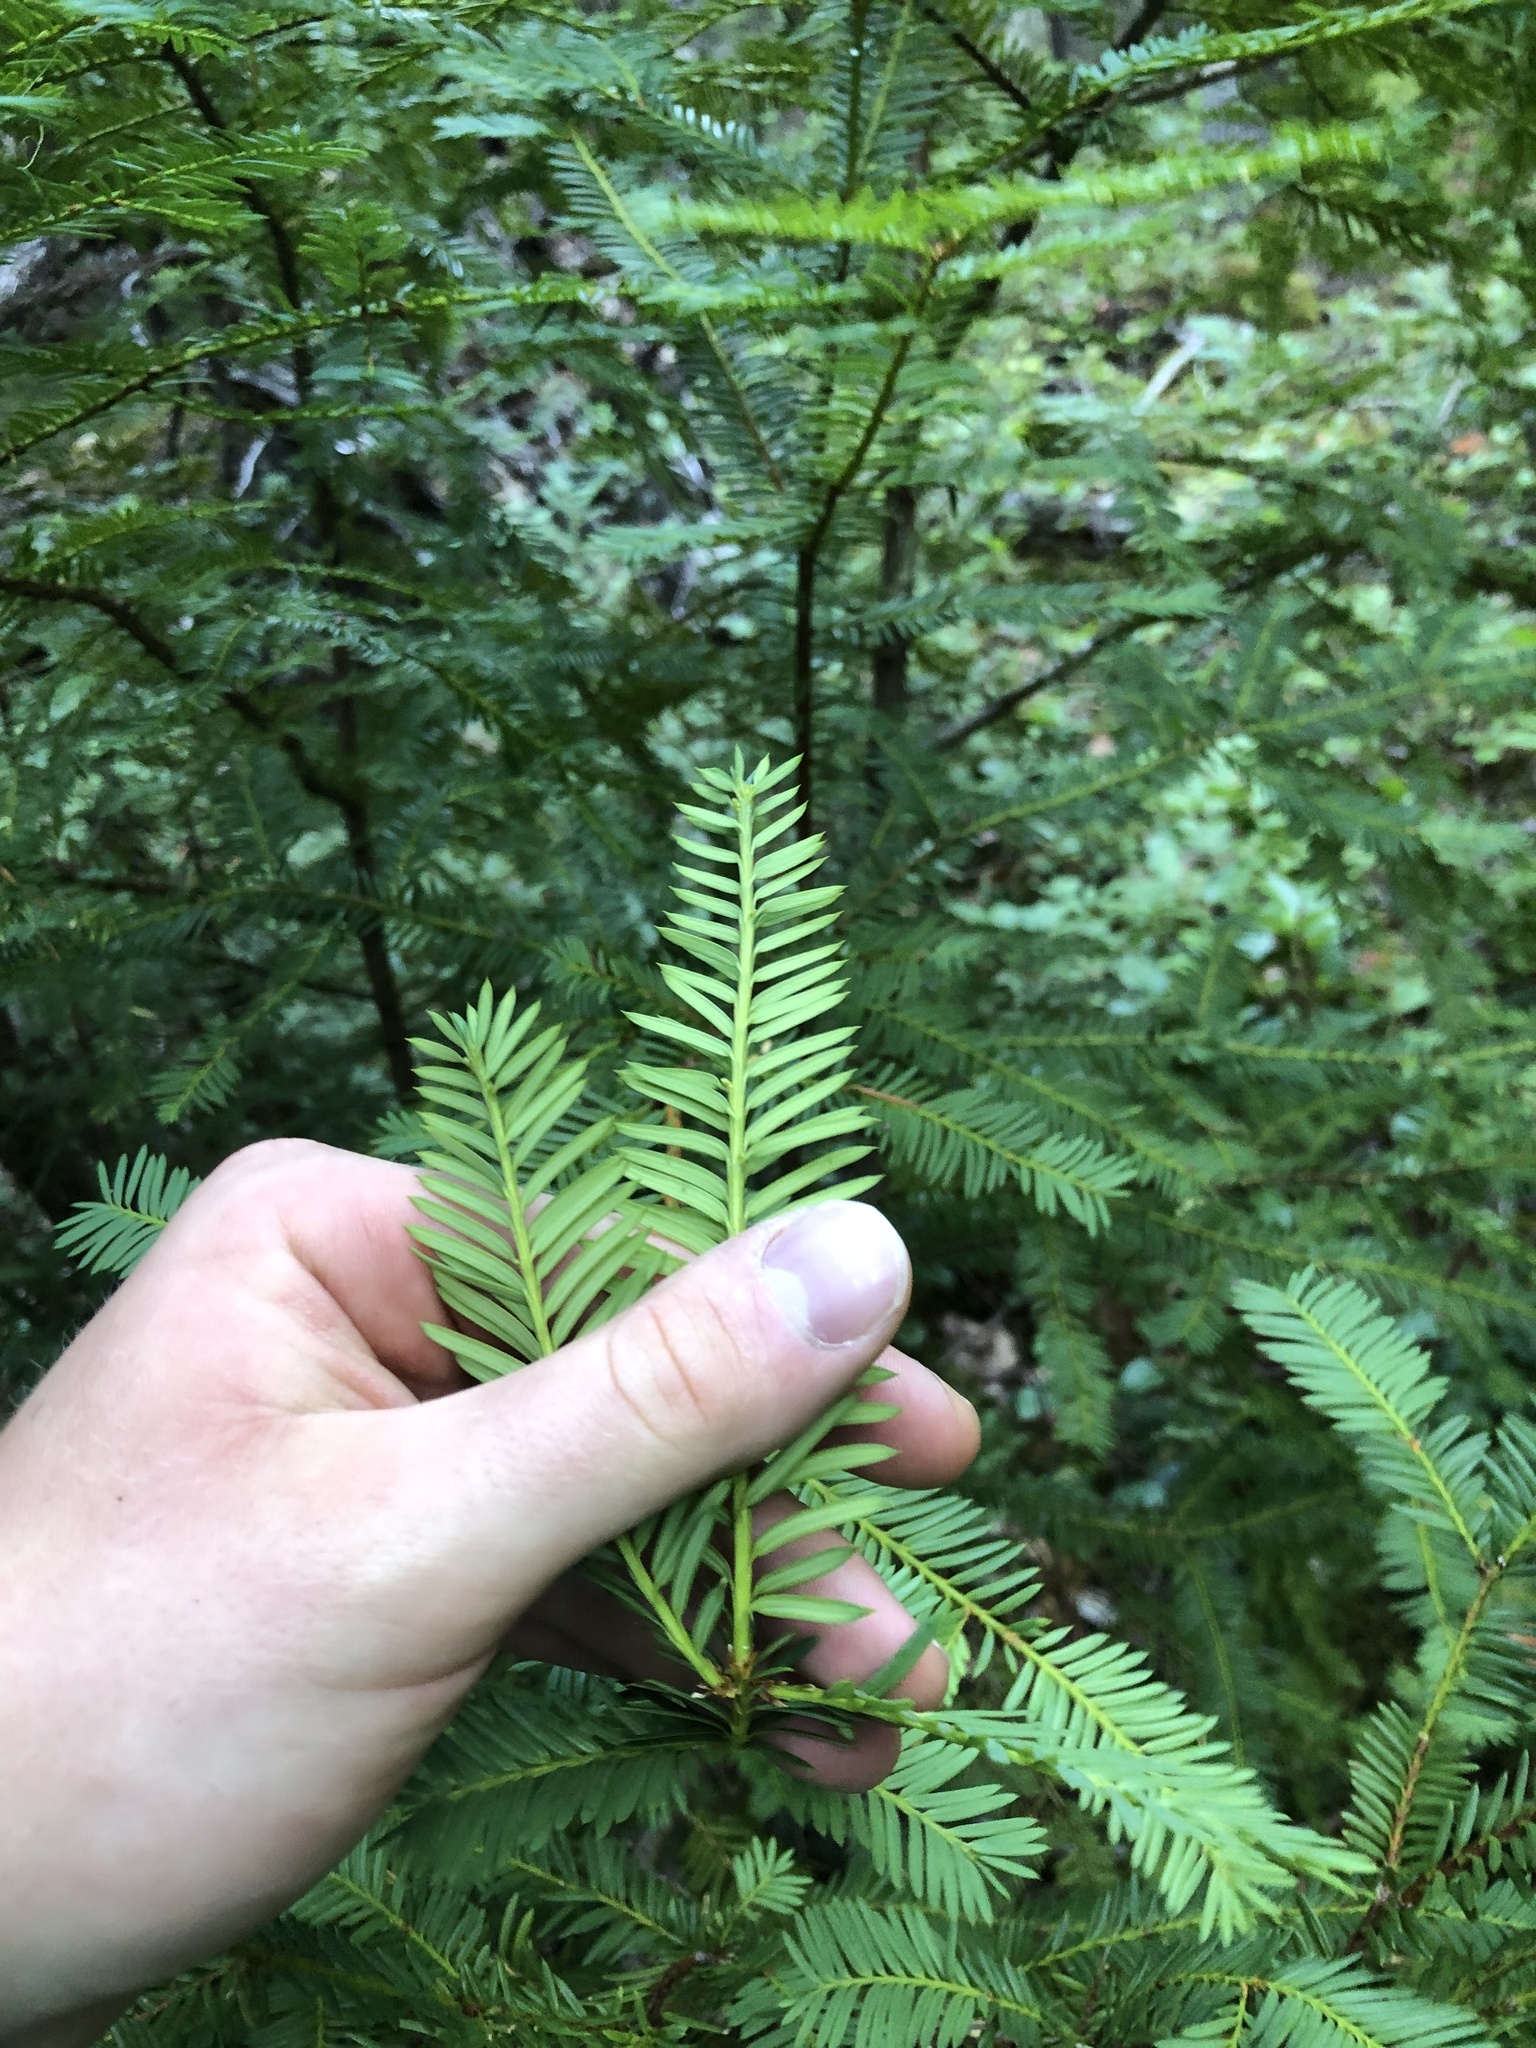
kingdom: Plantae
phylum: Tracheophyta
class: Pinopsida
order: Pinales
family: Taxaceae
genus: Taxus
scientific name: Taxus brevifolia
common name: Pacific yew
